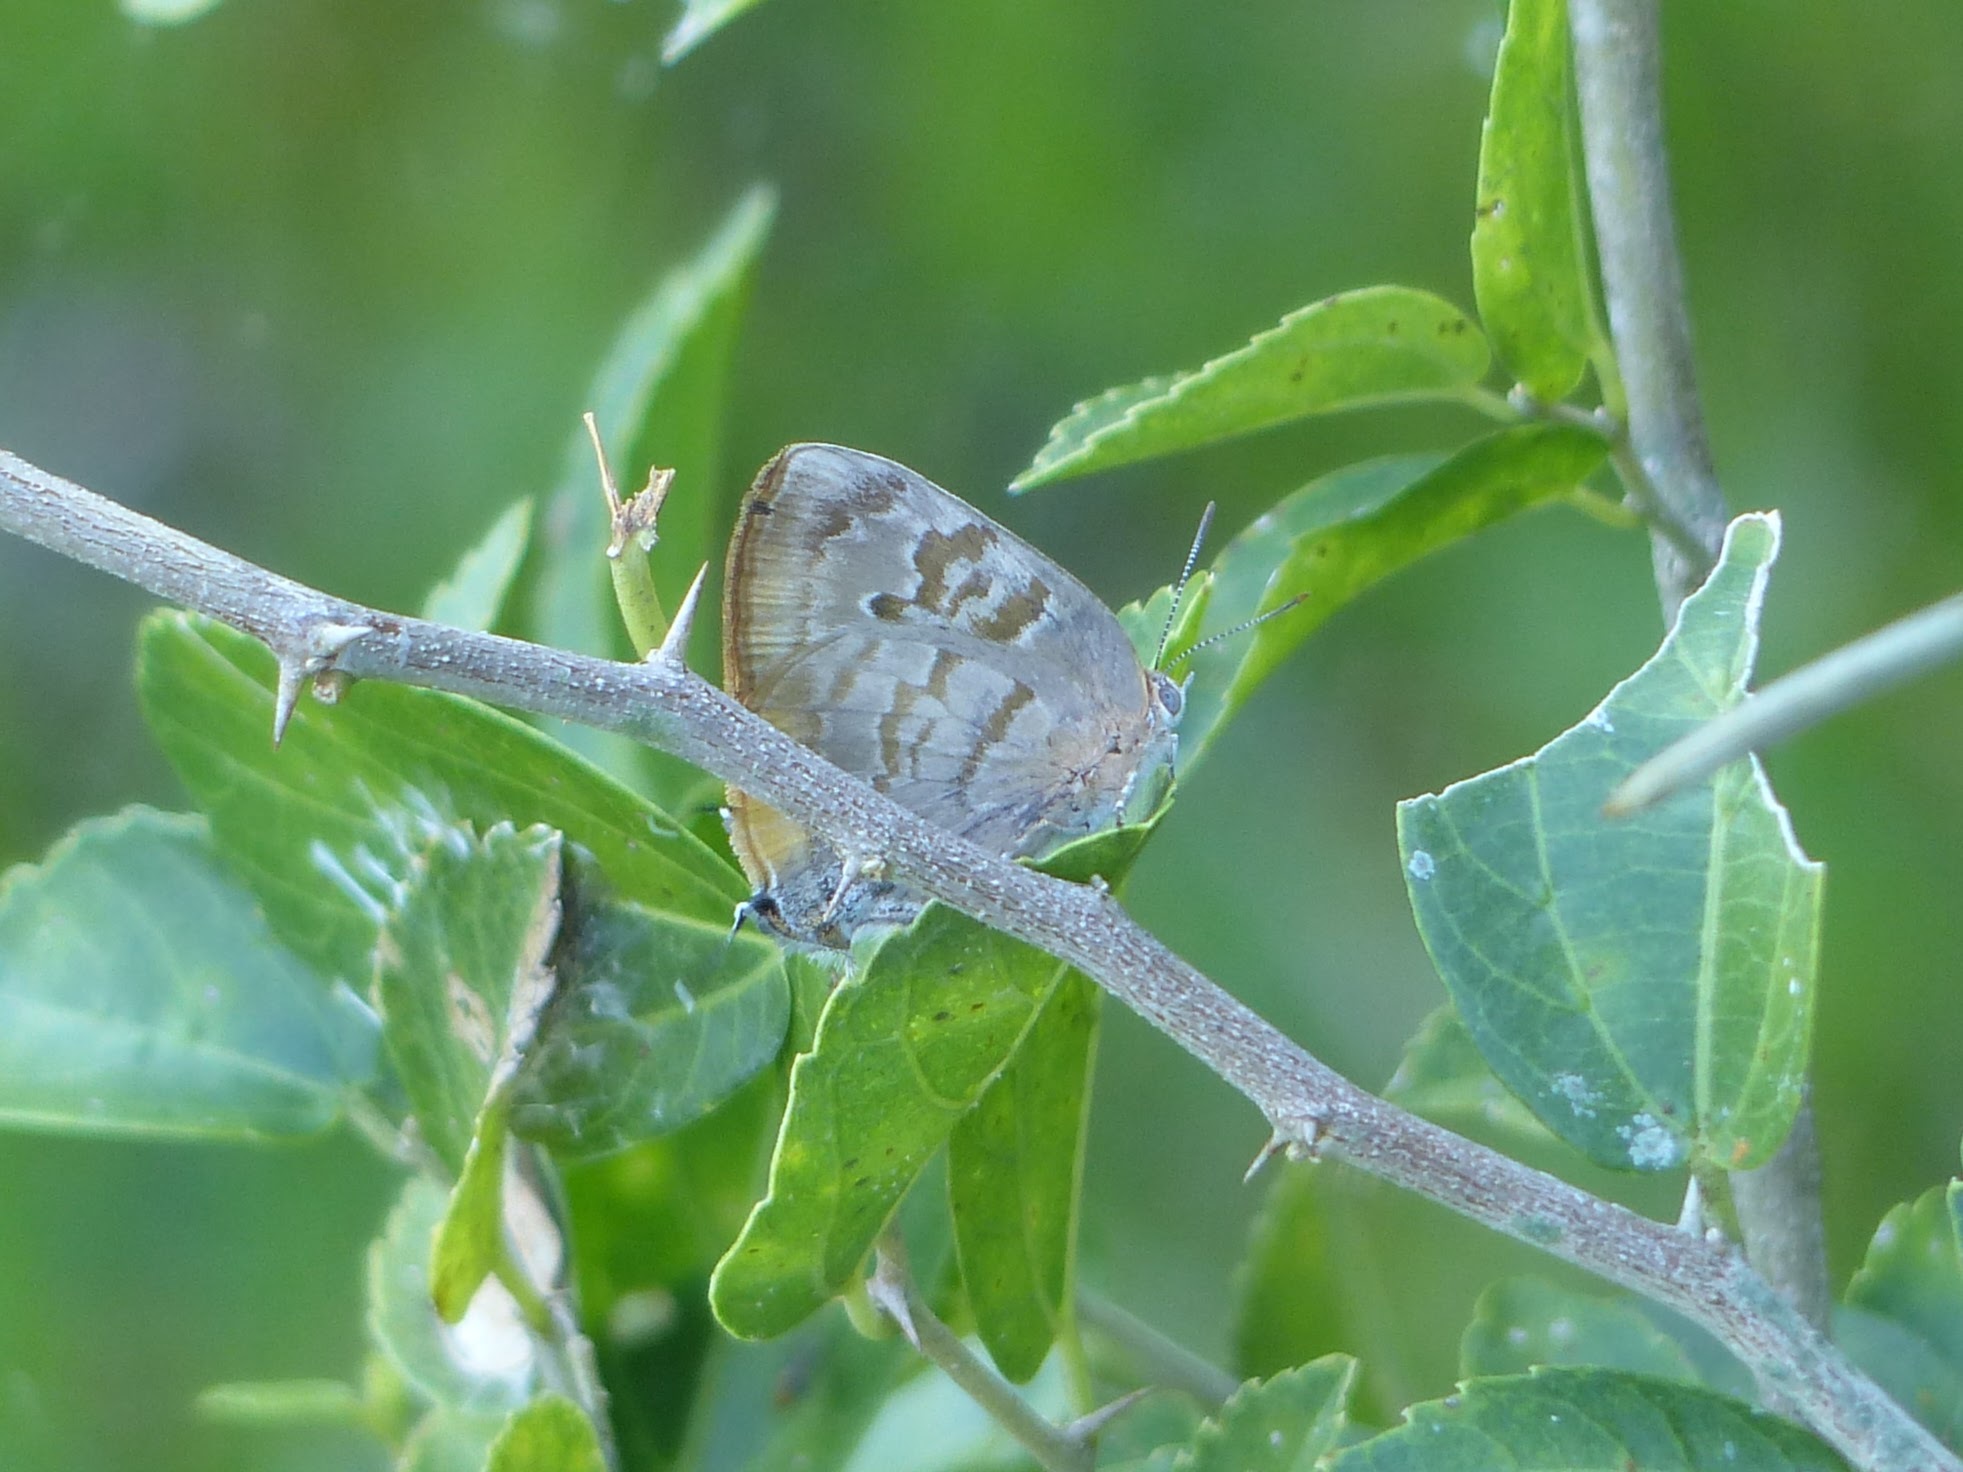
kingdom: Animalia
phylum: Arthropoda
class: Insecta
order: Lepidoptera
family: Lycaenidae
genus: Rekoa
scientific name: Rekoa palegon
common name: Gold-bordered hairstreak
